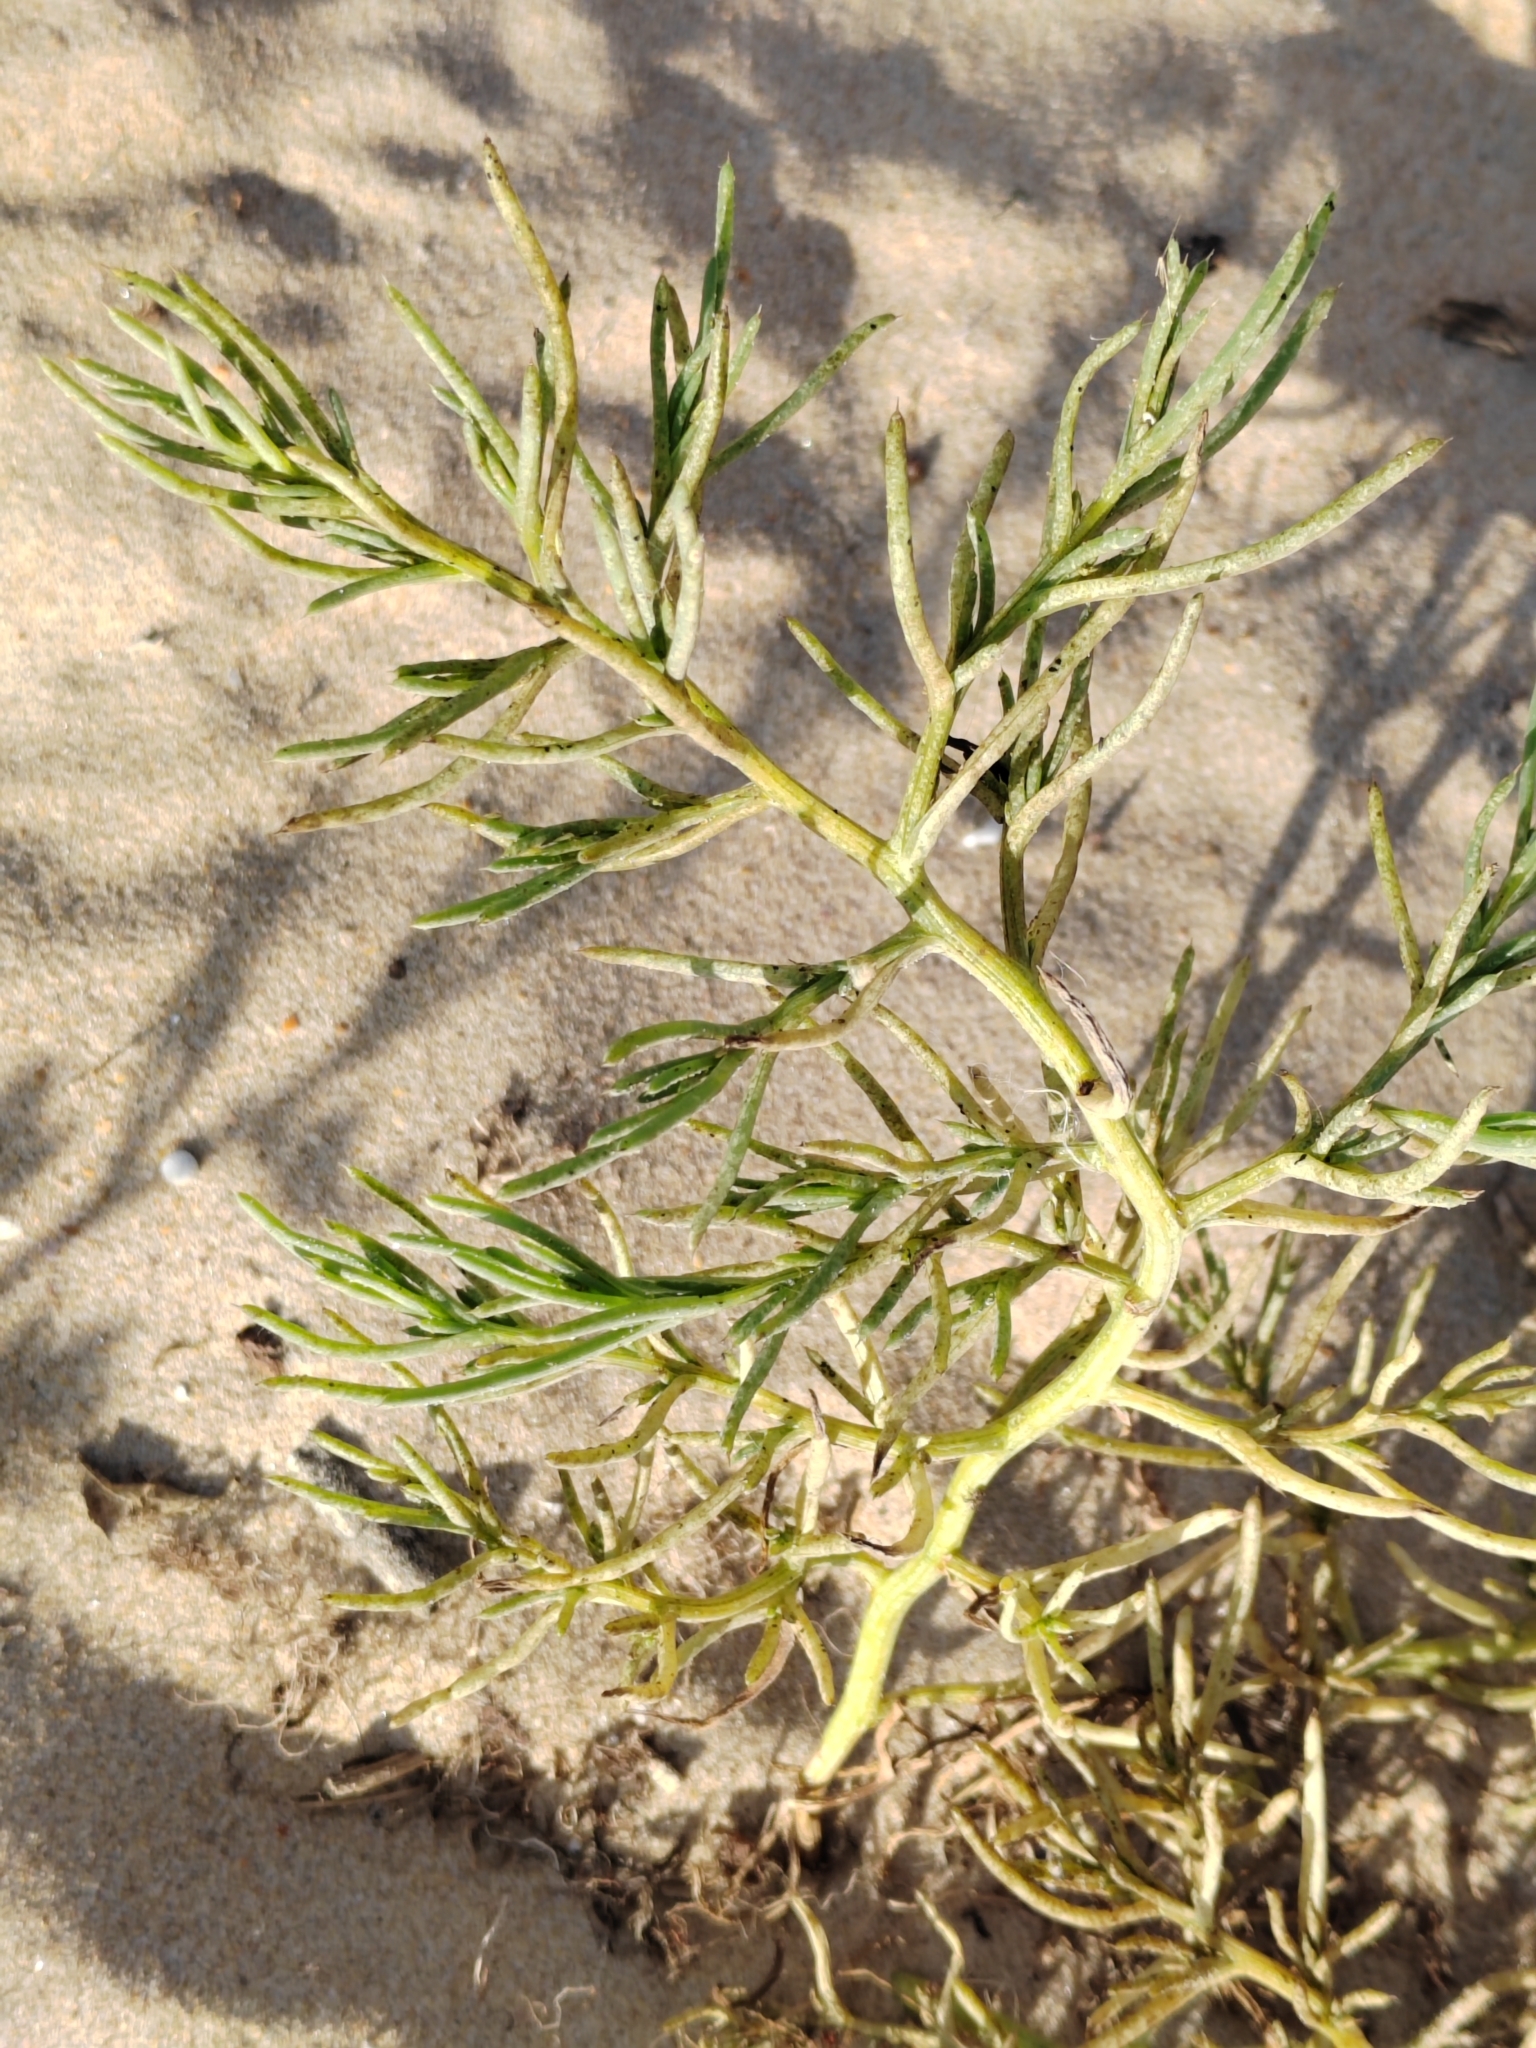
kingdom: Plantae
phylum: Tracheophyta
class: Magnoliopsida
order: Sapindales
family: Tetradiclidaceae
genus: Peganum
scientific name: Peganum harmala
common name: Harmal peganum
